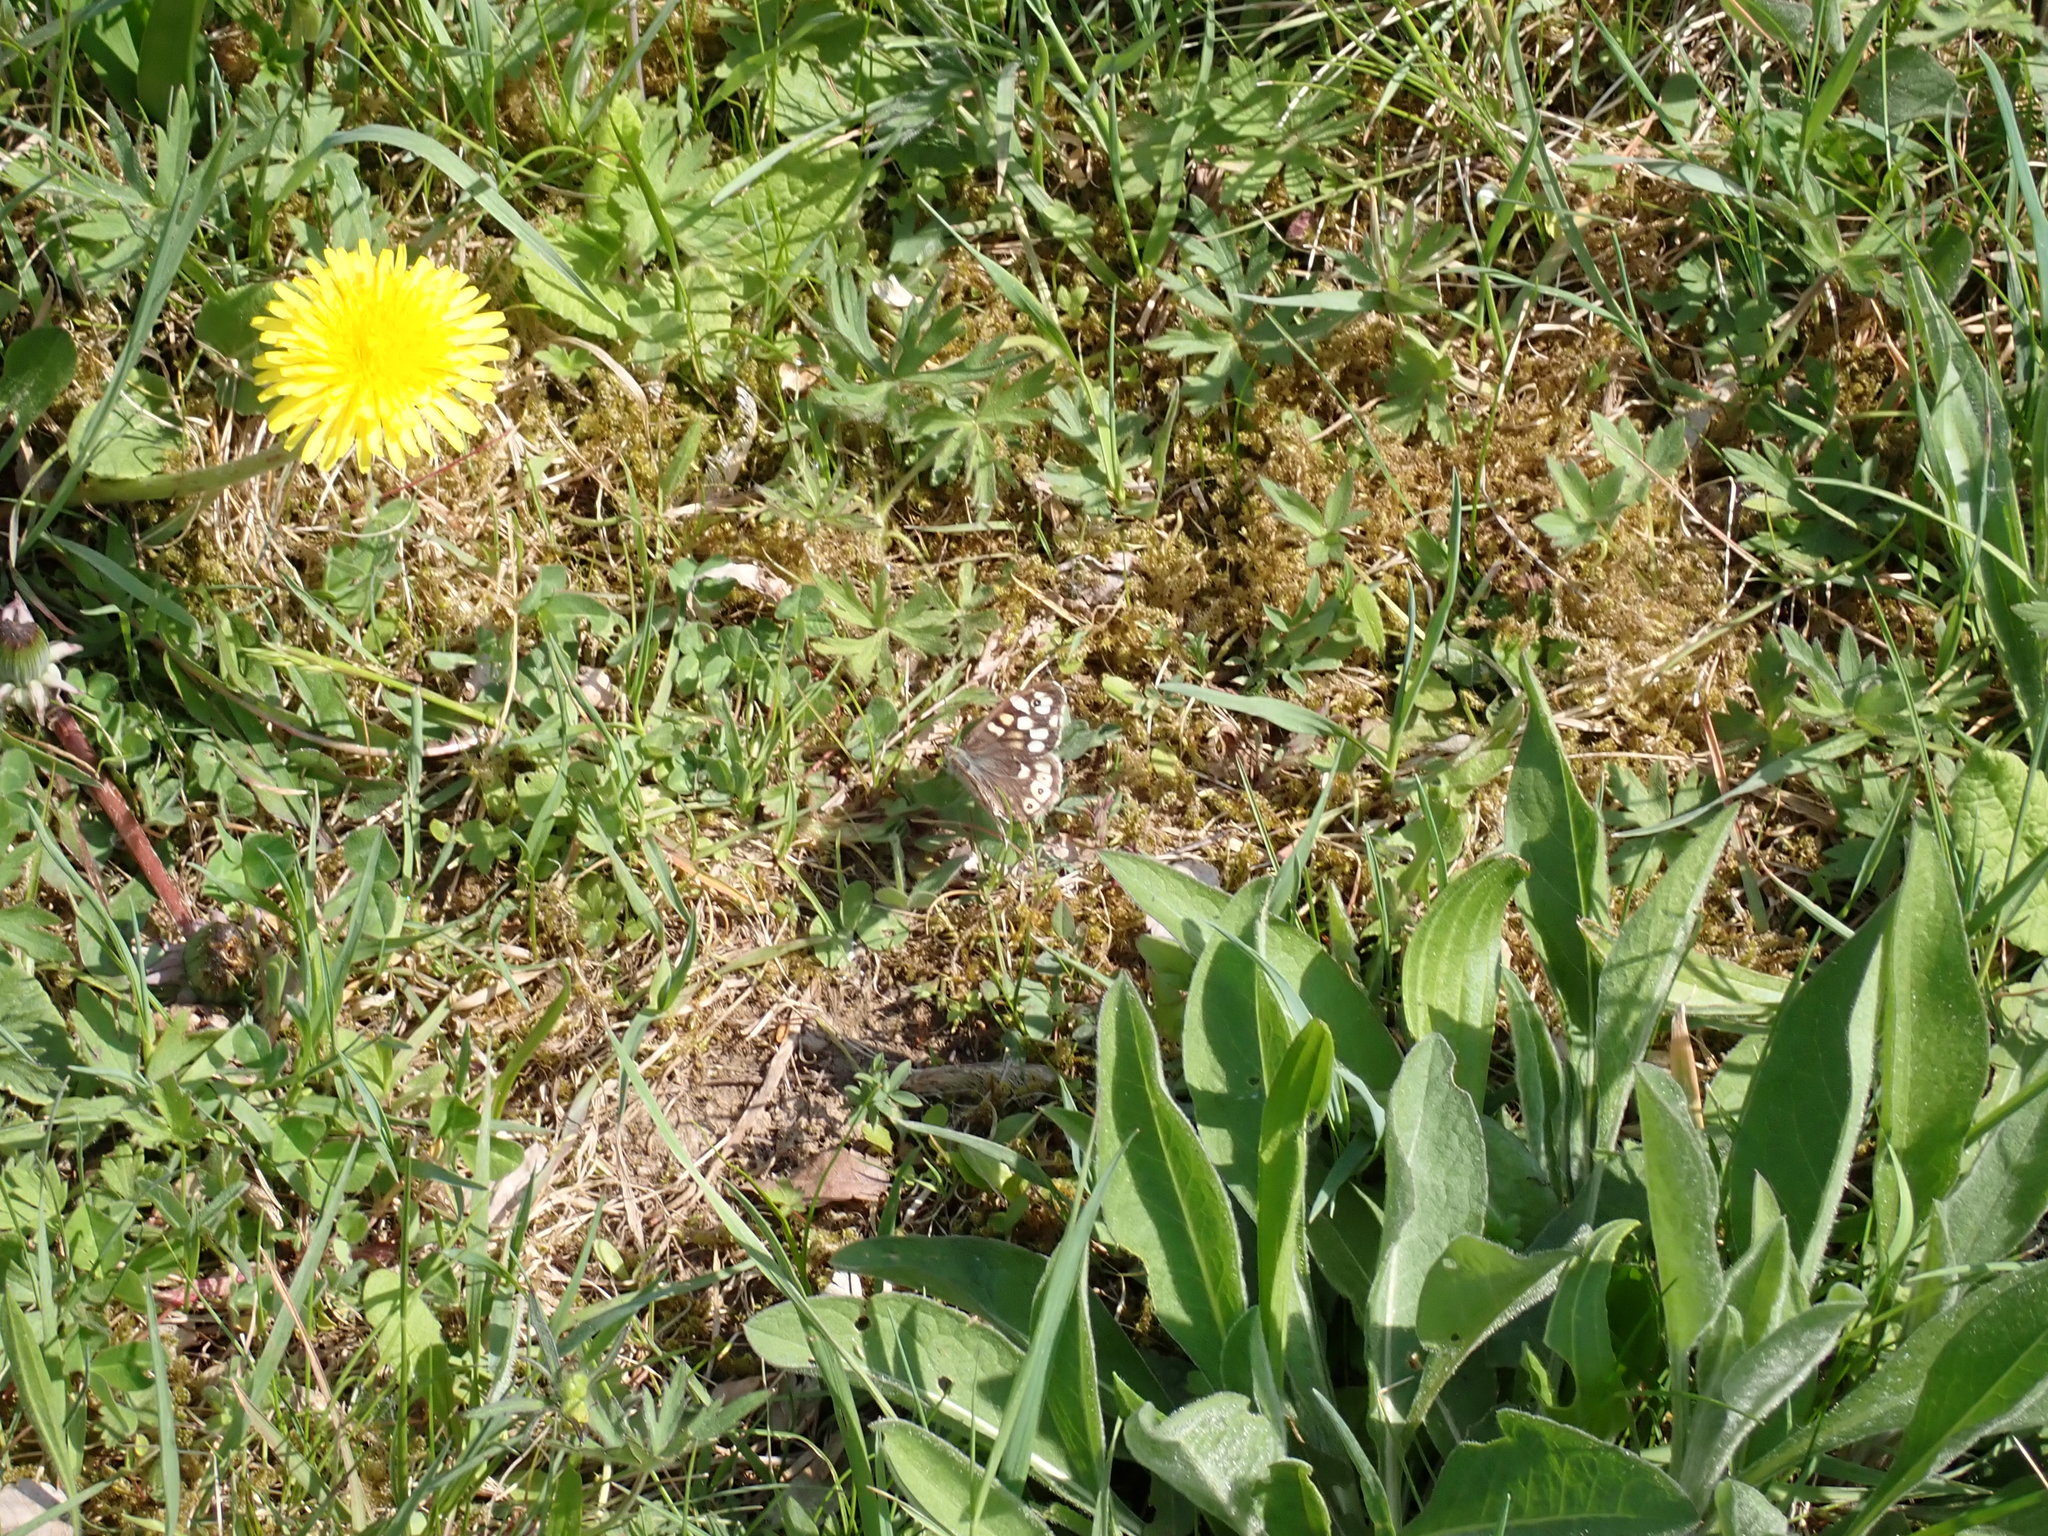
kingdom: Animalia
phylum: Arthropoda
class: Insecta
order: Lepidoptera
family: Nymphalidae
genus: Pararge
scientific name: Pararge aegeria
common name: Speckled wood
